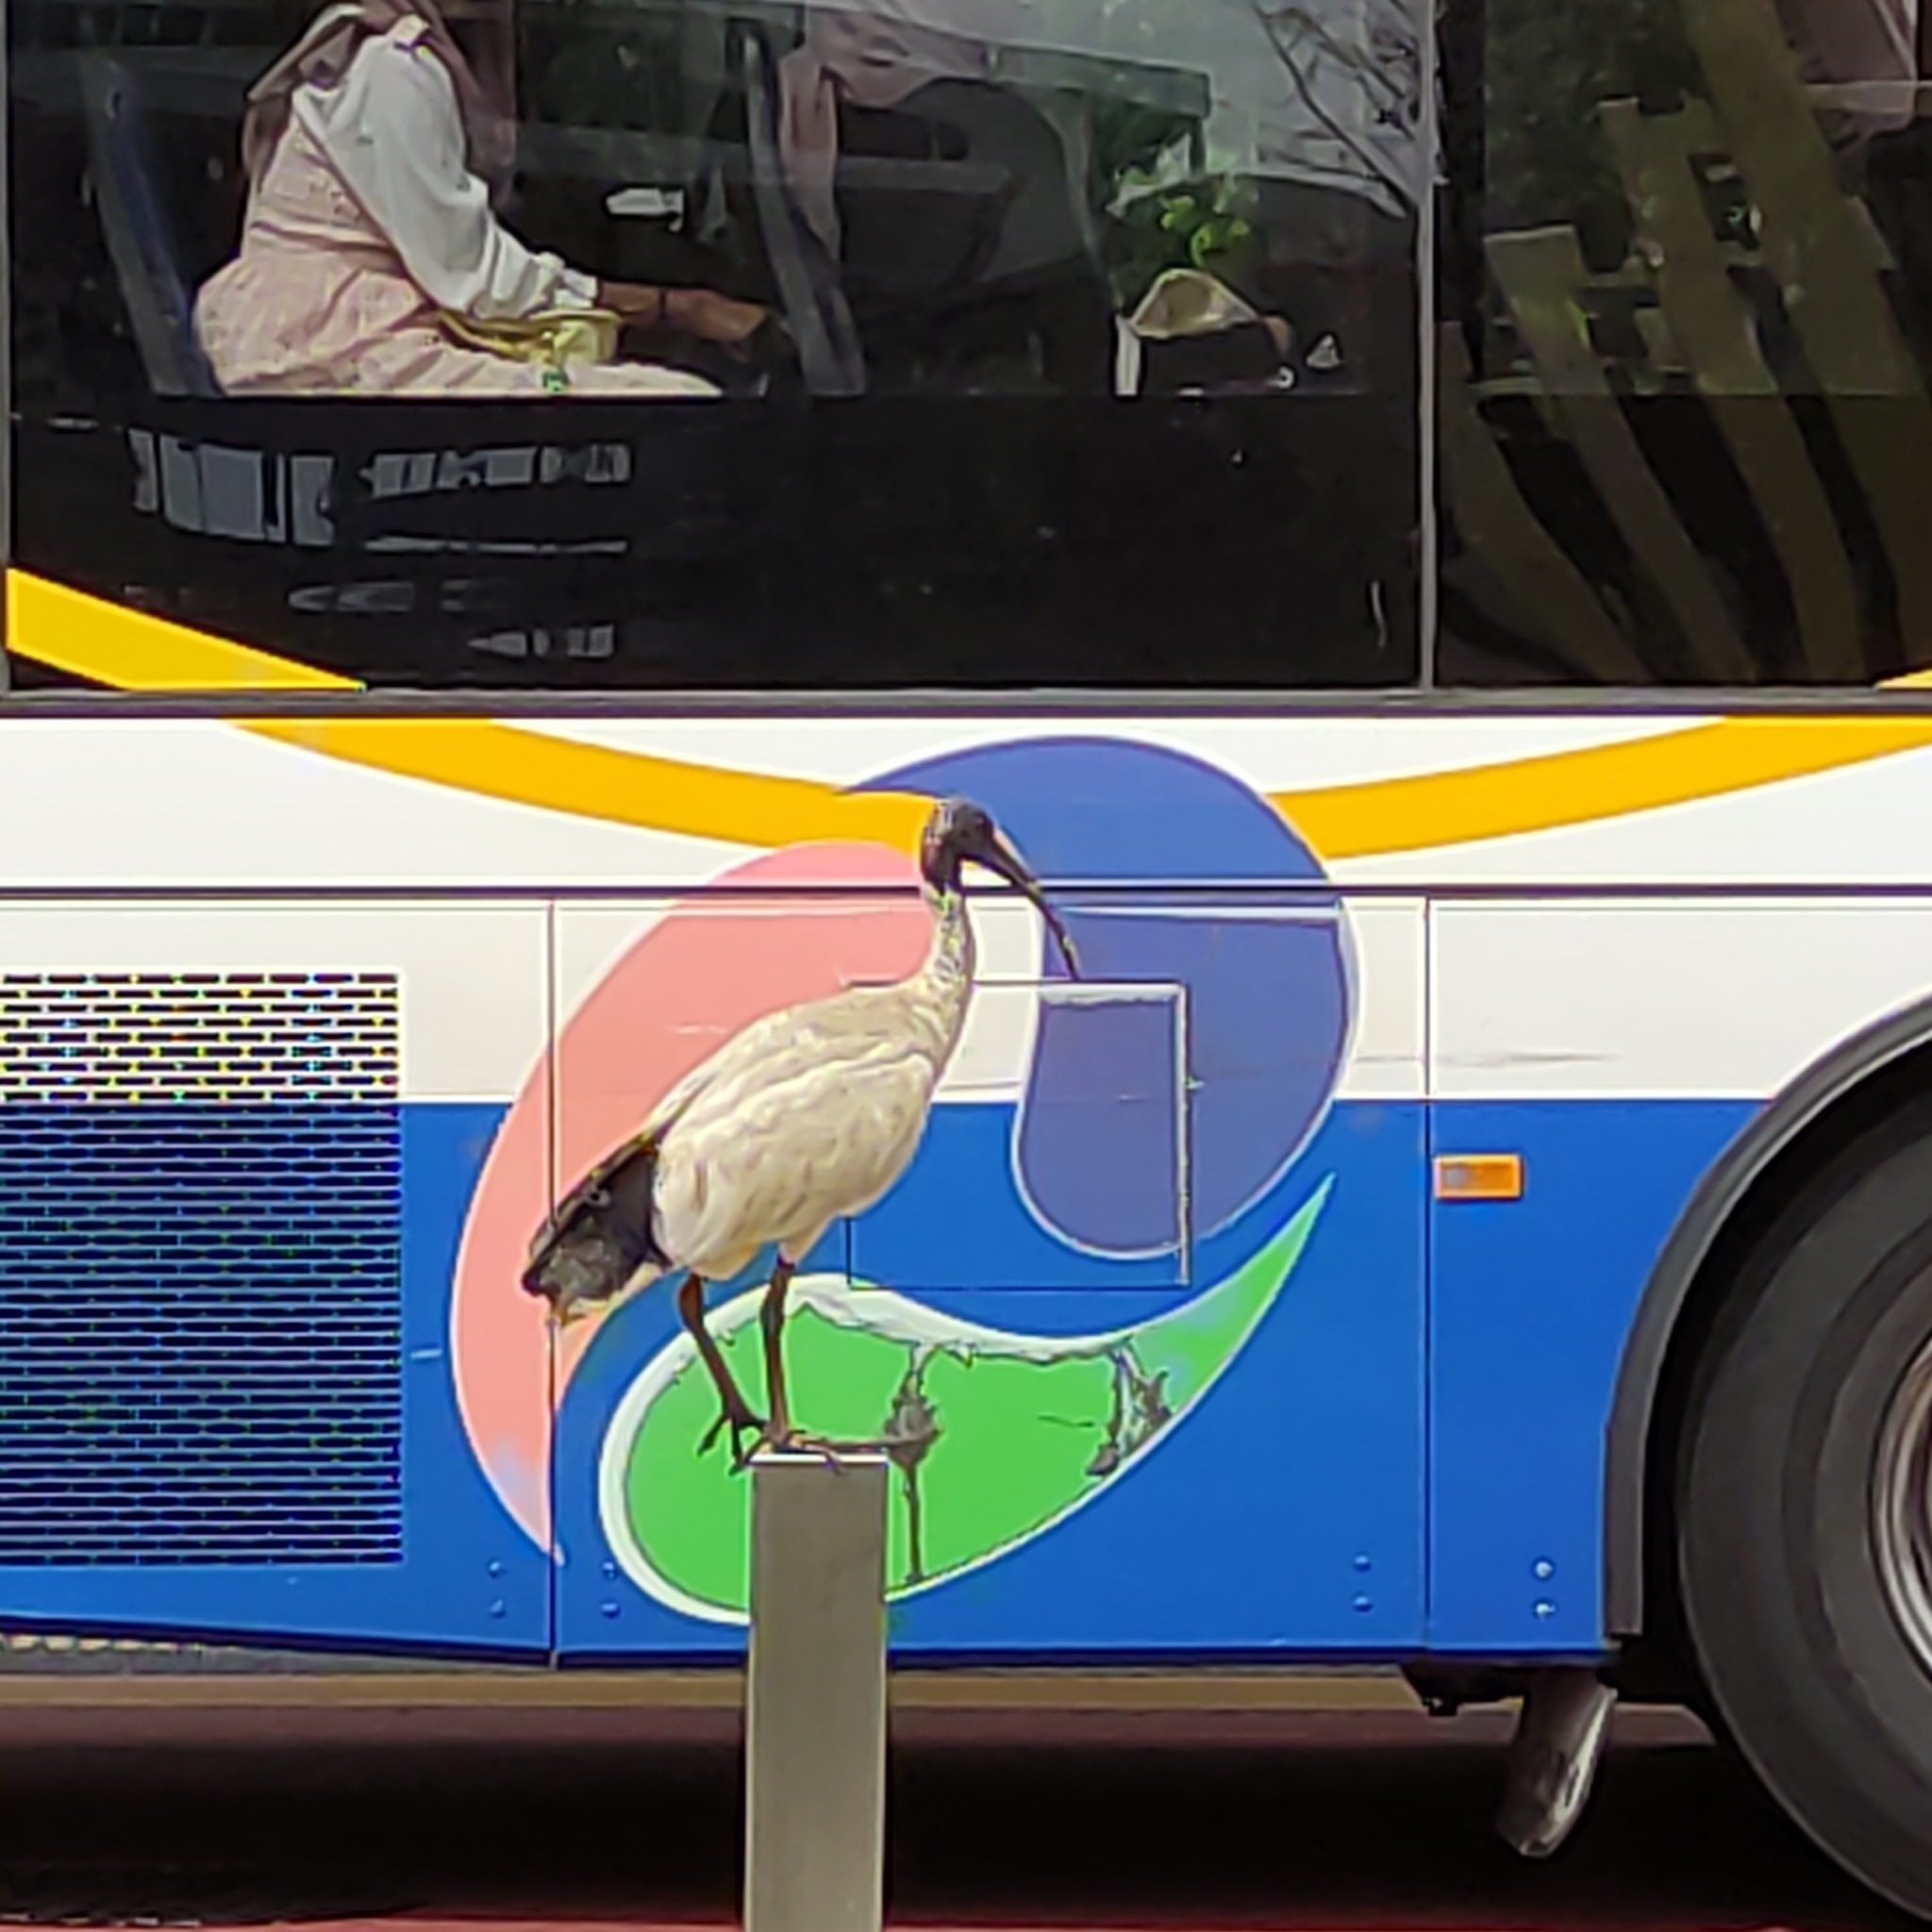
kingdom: Animalia
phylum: Chordata
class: Aves
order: Pelecaniformes
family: Threskiornithidae
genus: Threskiornis
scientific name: Threskiornis molucca
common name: Australian white ibis
